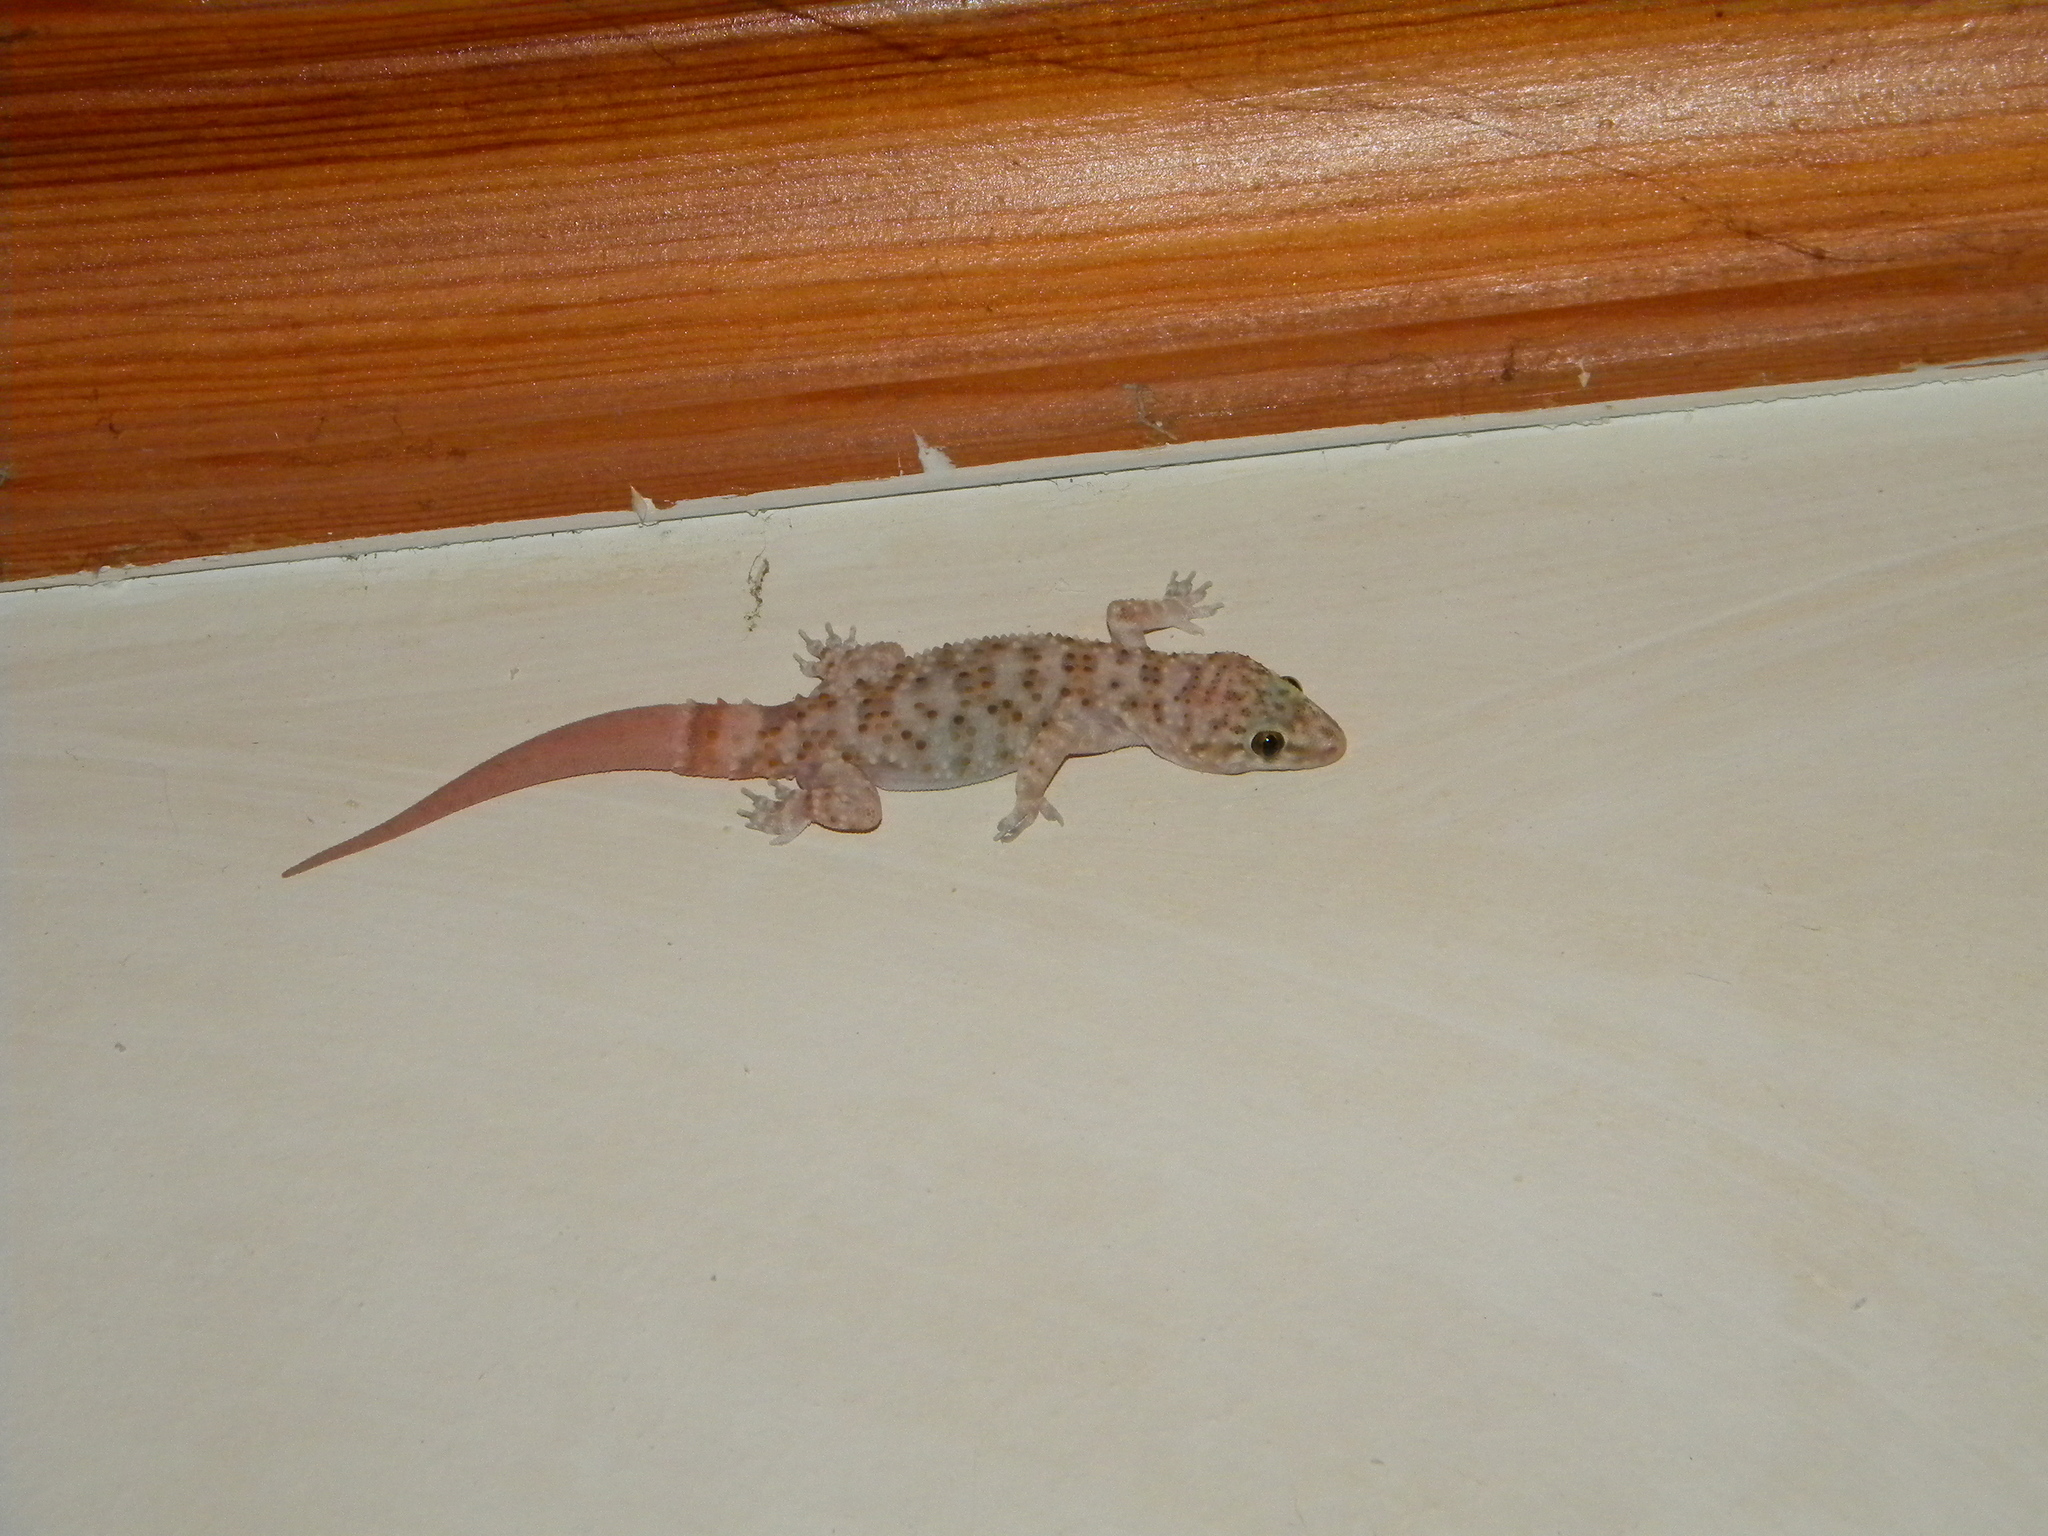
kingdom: Animalia
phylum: Chordata
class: Squamata
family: Gekkonidae
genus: Hemidactylus
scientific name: Hemidactylus turcicus
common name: Turkish gecko
